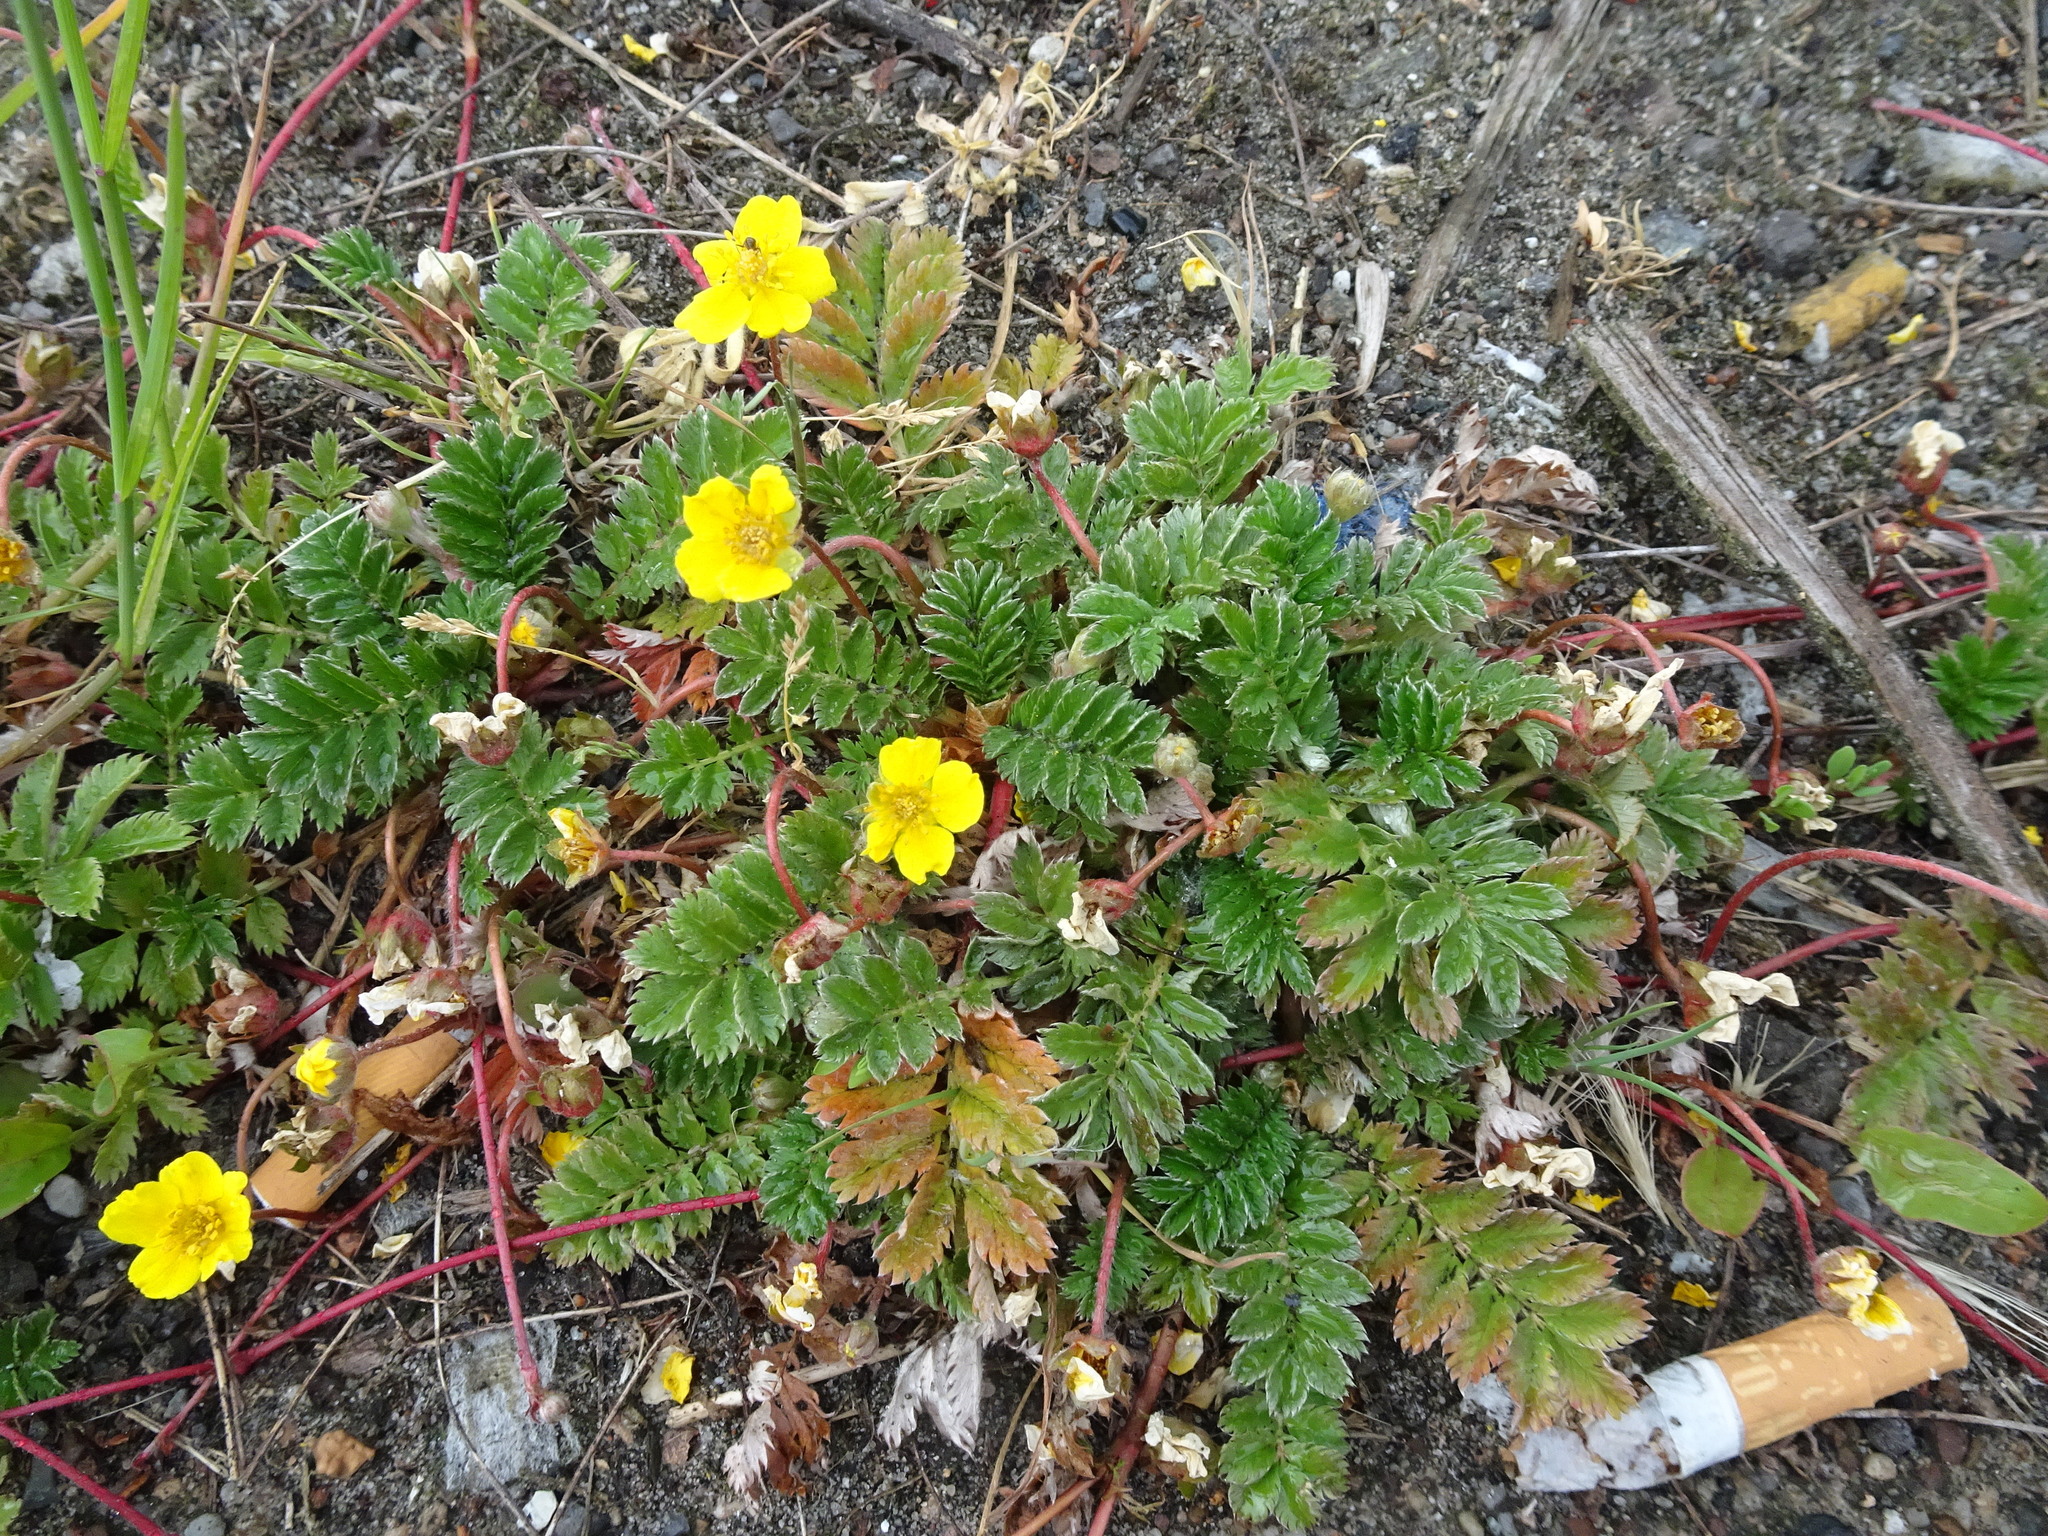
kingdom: Plantae
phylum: Tracheophyta
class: Magnoliopsida
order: Rosales
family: Rosaceae
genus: Argentina
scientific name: Argentina anserina
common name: Common silverweed
